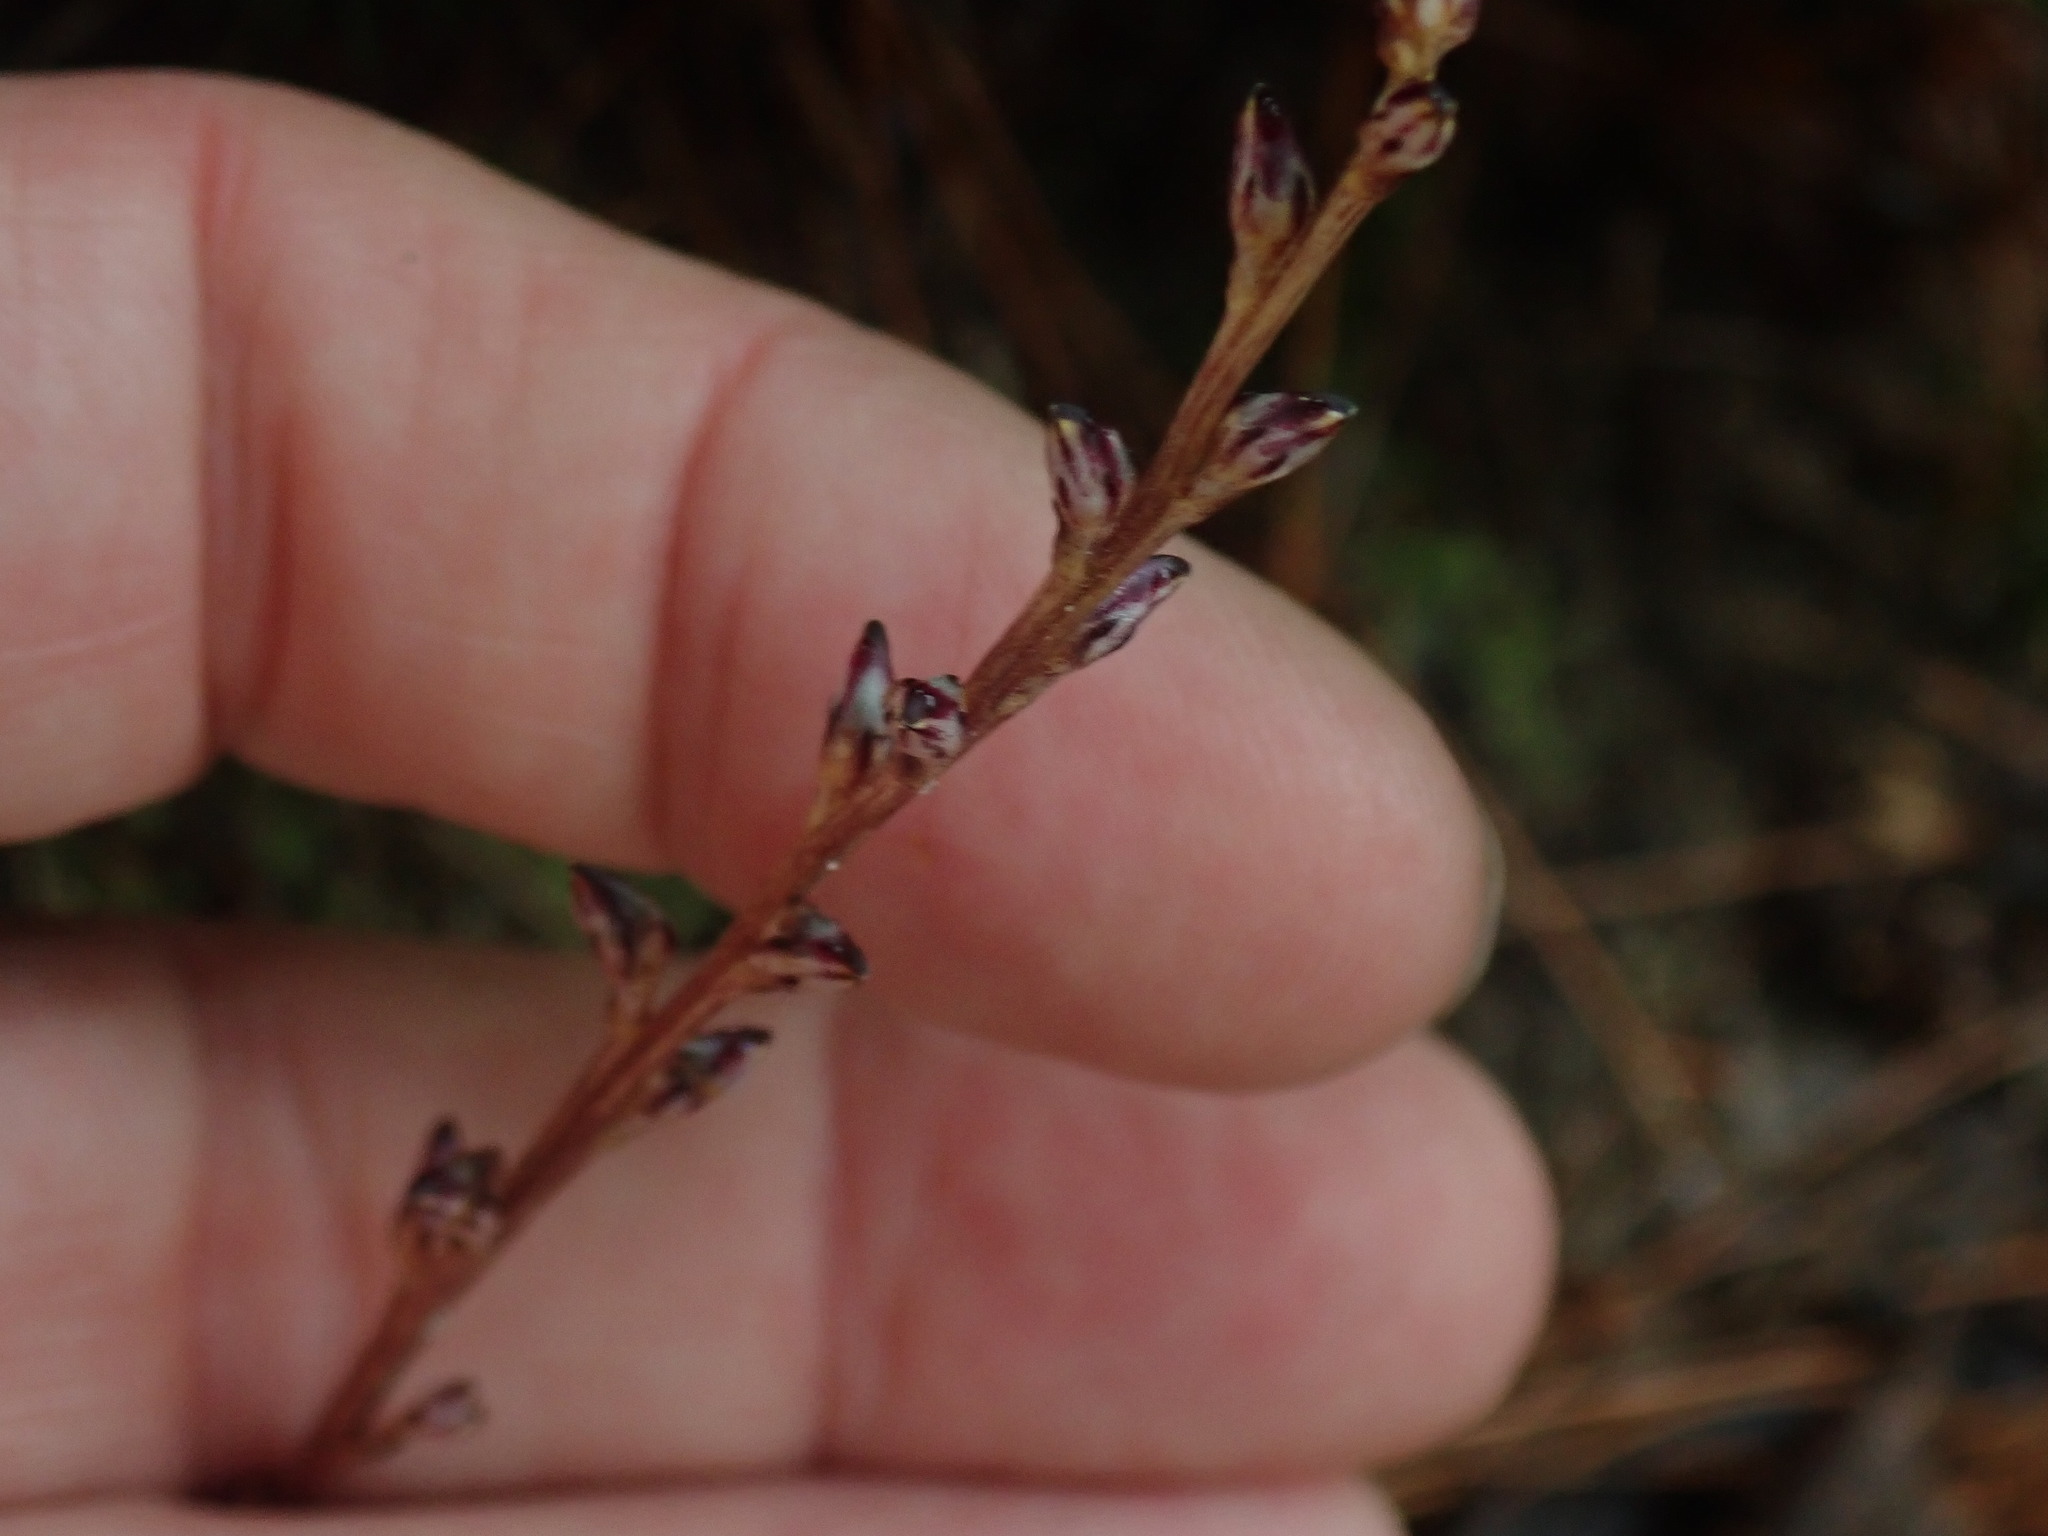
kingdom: Plantae
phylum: Tracheophyta
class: Magnoliopsida
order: Lamiales
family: Orobanchaceae
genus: Epifagus
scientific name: Epifagus virginiana
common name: Beechdrops
